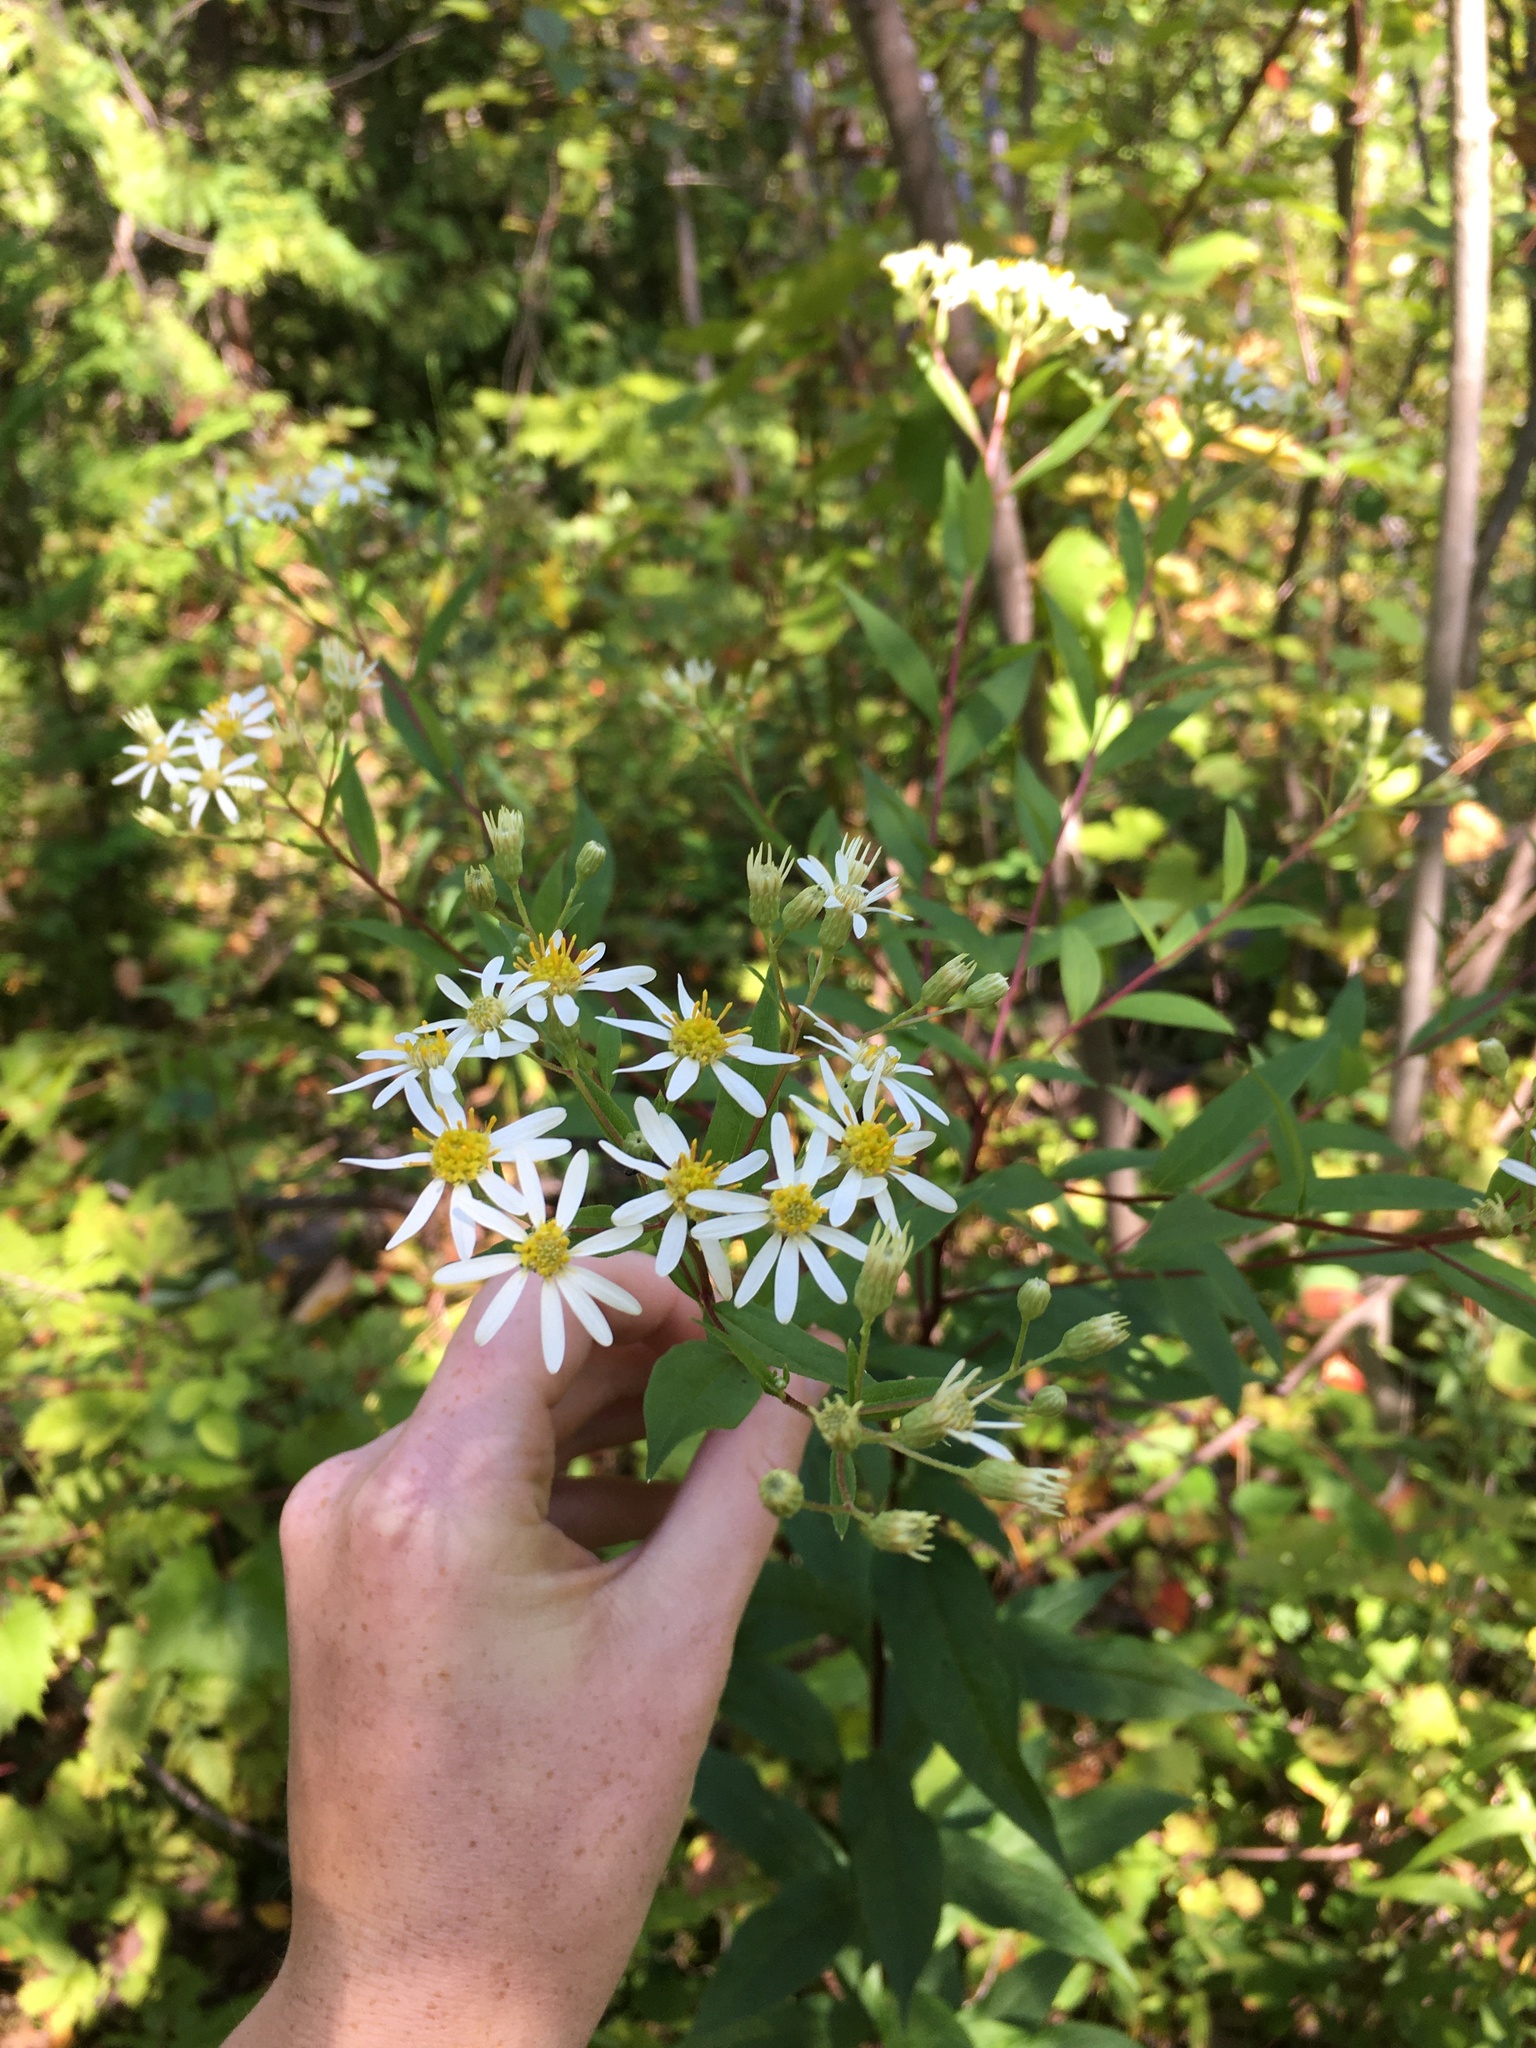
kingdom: Plantae
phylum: Tracheophyta
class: Magnoliopsida
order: Asterales
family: Asteraceae
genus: Doellingeria
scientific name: Doellingeria umbellata
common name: Flat-top white aster
